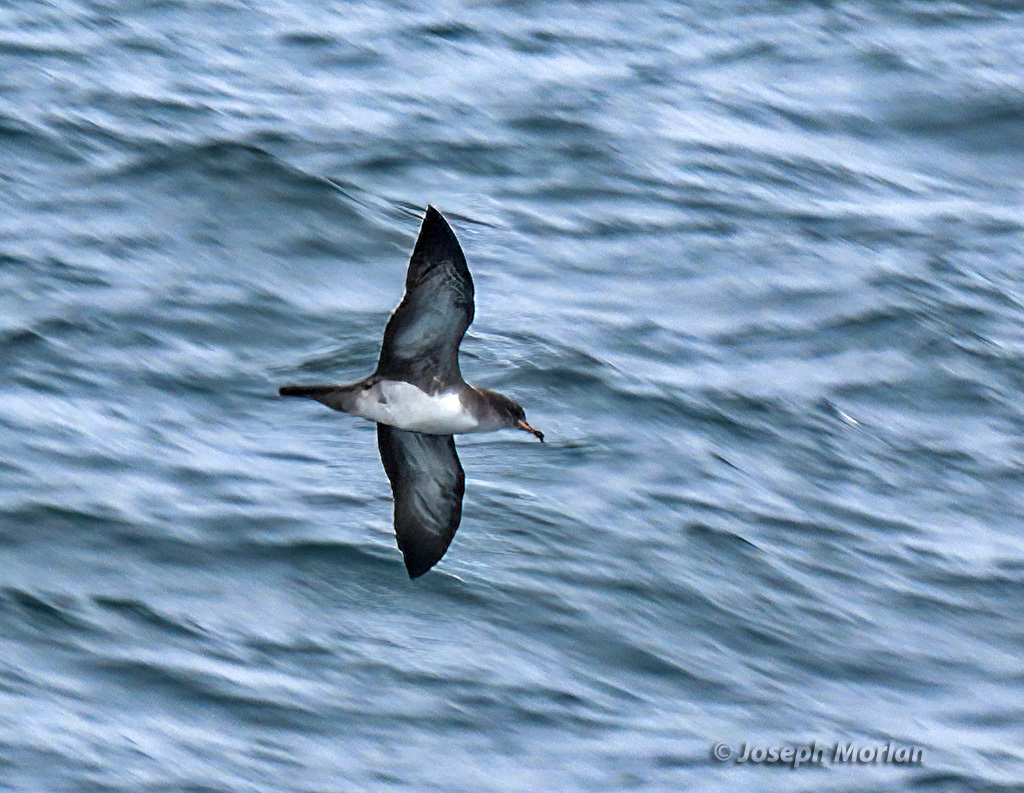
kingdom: Animalia
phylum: Chordata
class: Aves
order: Procellariiformes
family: Procellariidae
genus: Puffinus
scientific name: Puffinus creatopus
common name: Pink-footed shearwater
